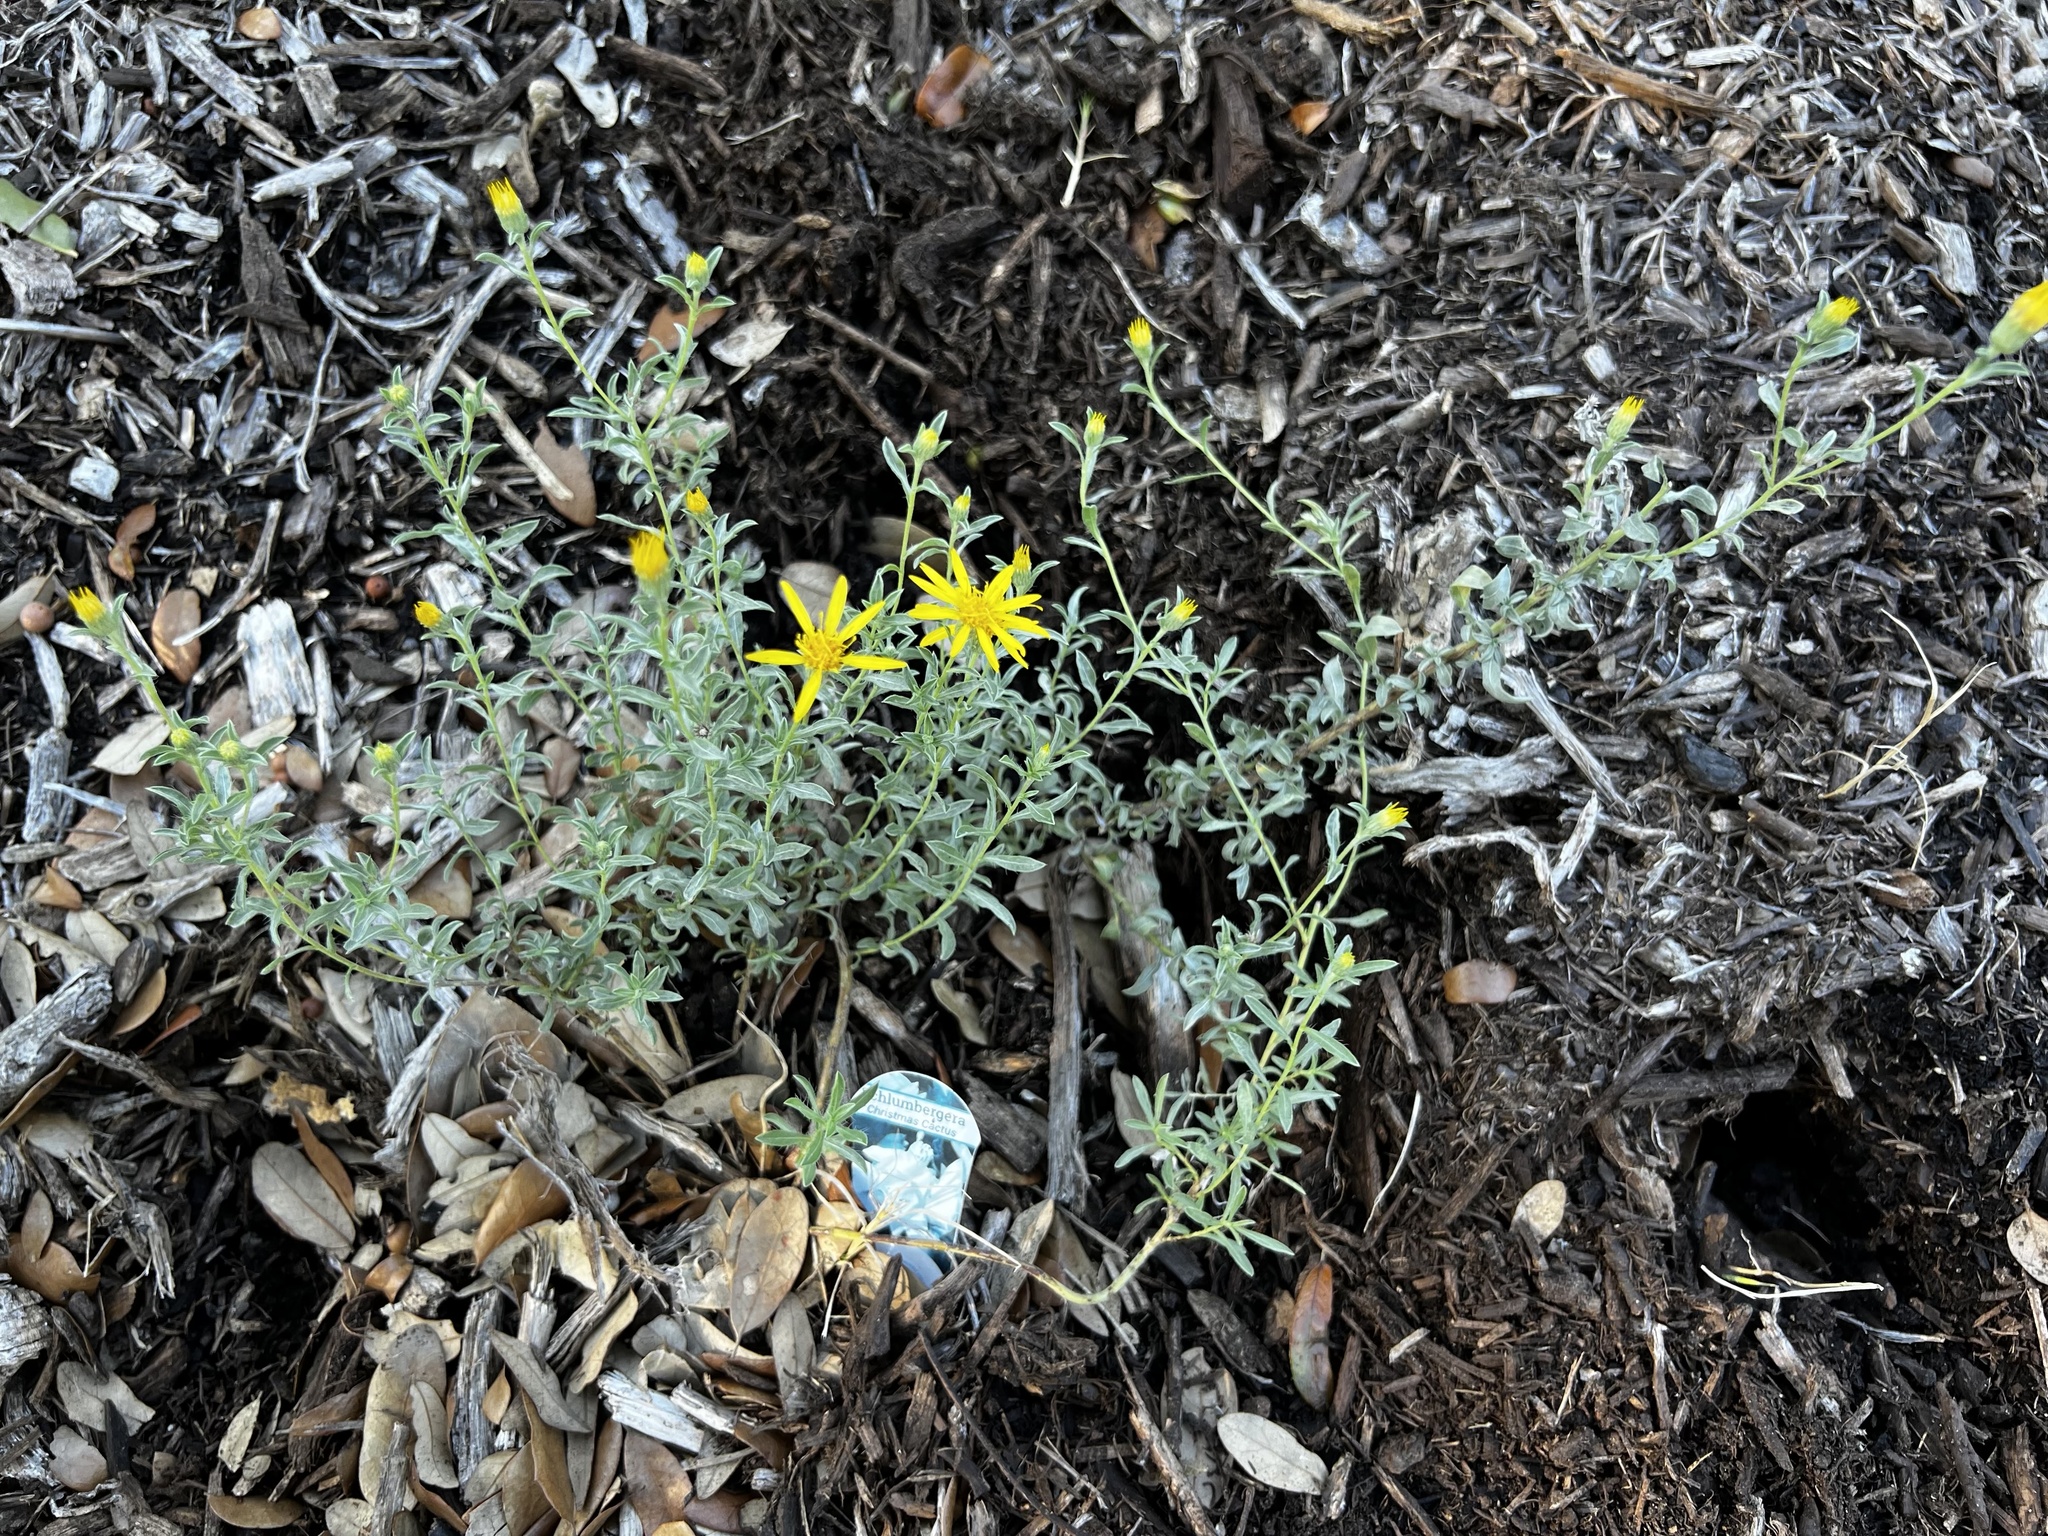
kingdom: Plantae
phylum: Tracheophyta
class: Magnoliopsida
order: Asterales
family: Asteraceae
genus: Heterotheca
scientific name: Heterotheca canescens
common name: Hoary golden-aster
